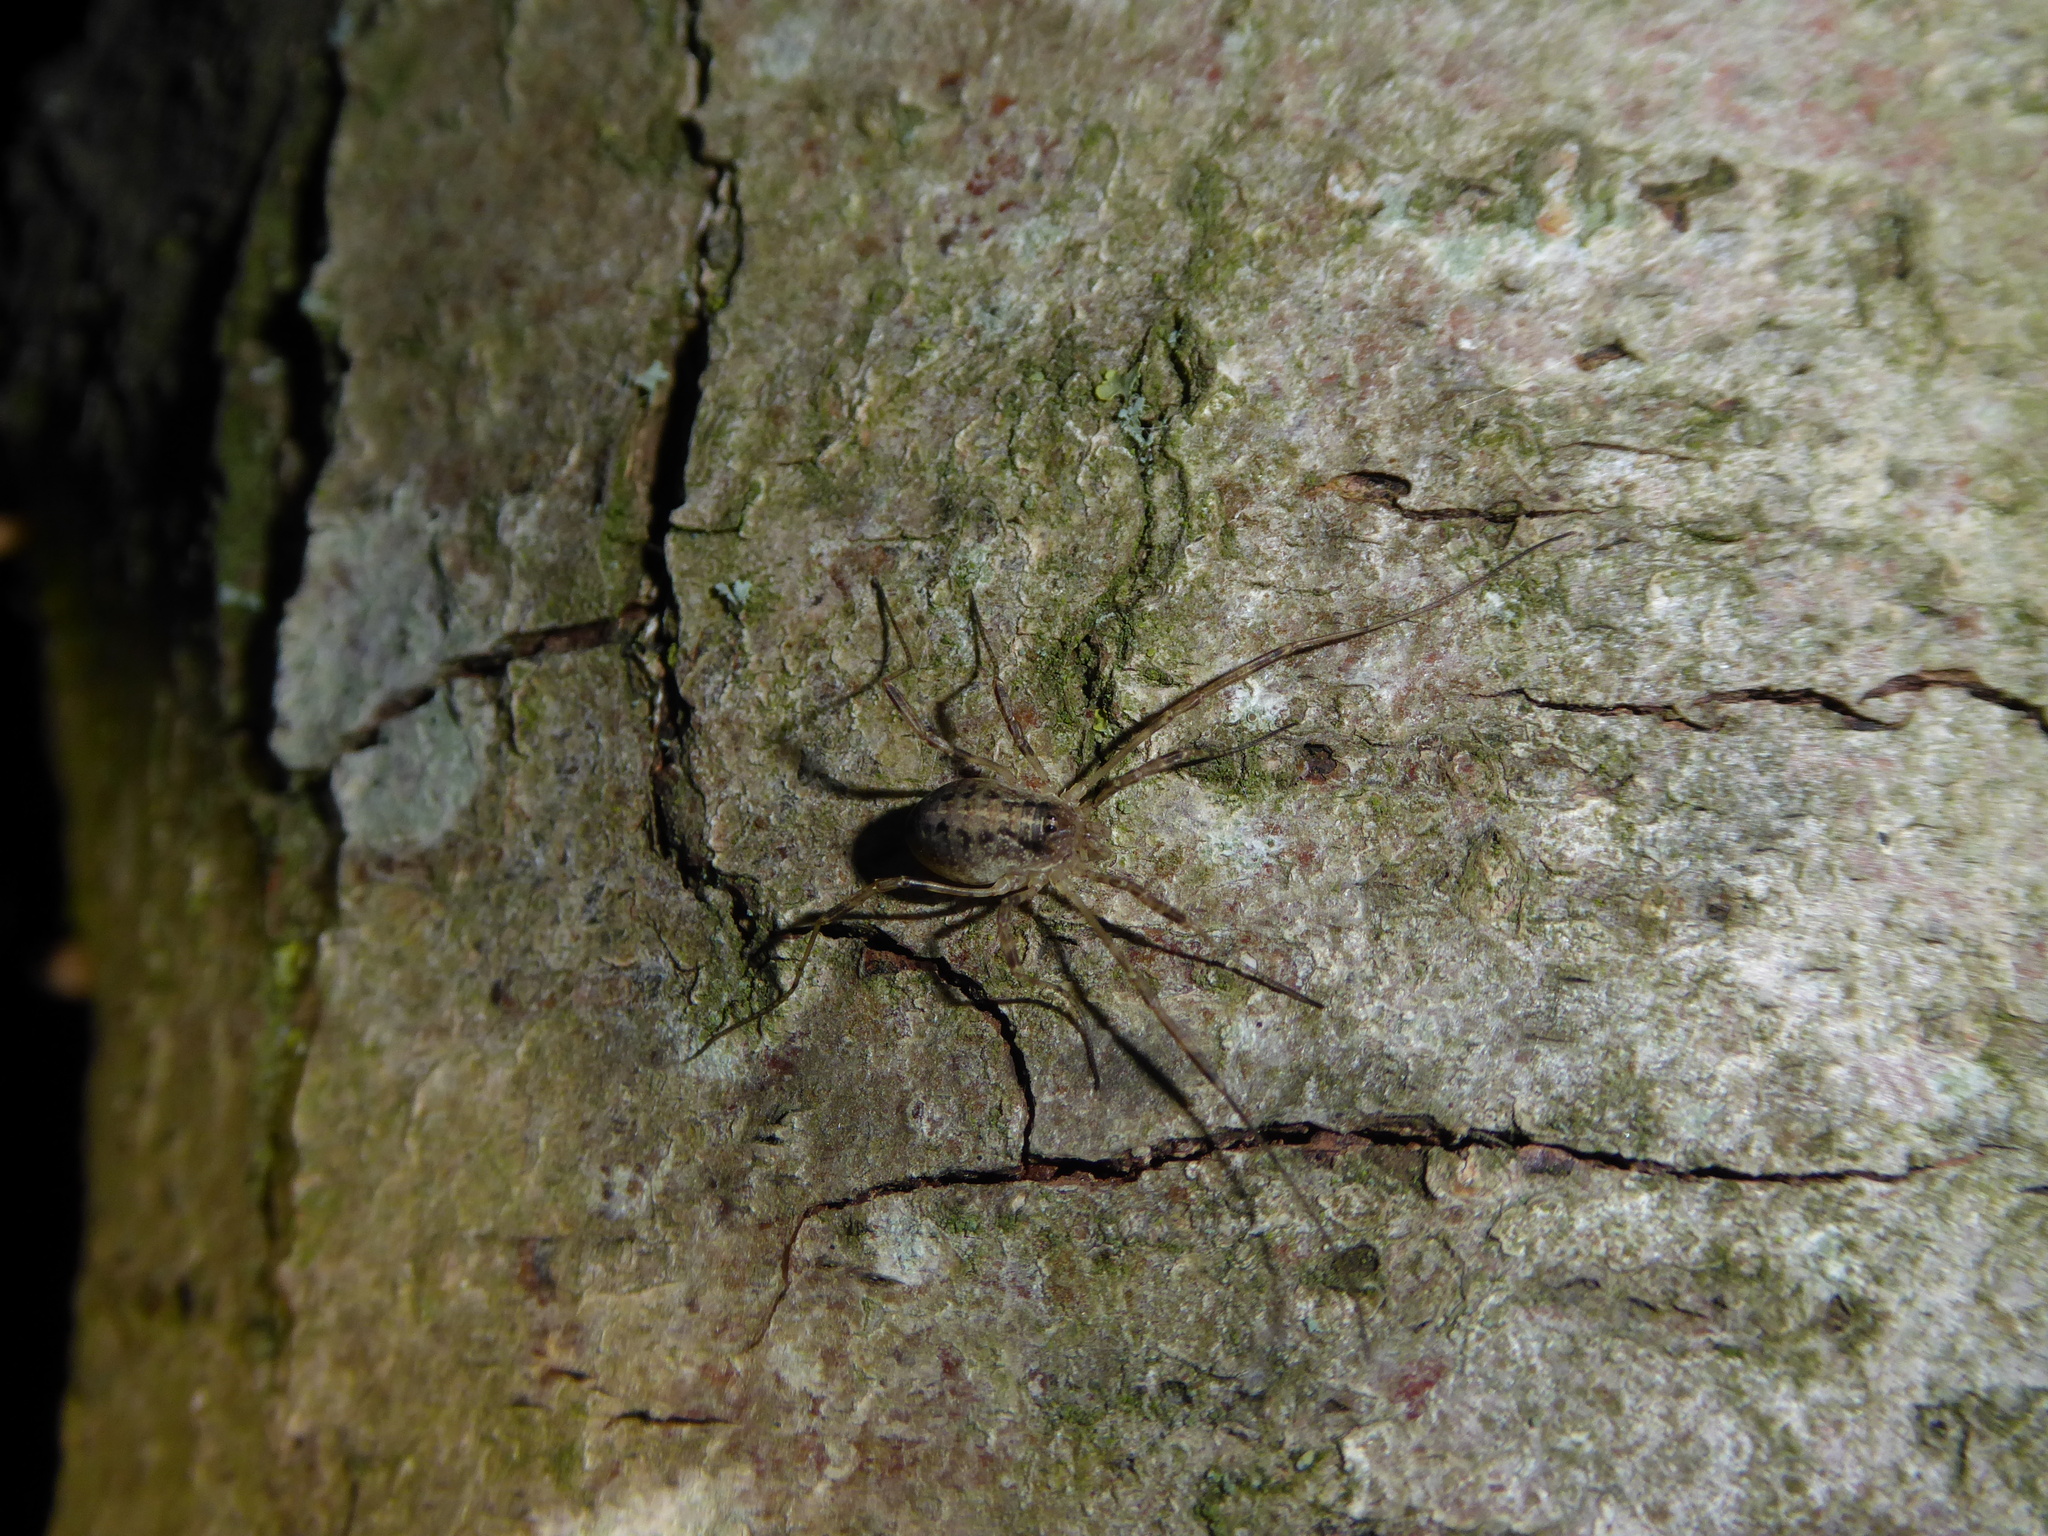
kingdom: Animalia
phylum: Arthropoda
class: Arachnida
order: Opiliones
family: Phalangiidae
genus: Paroligolophus
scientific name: Paroligolophus agrestis
